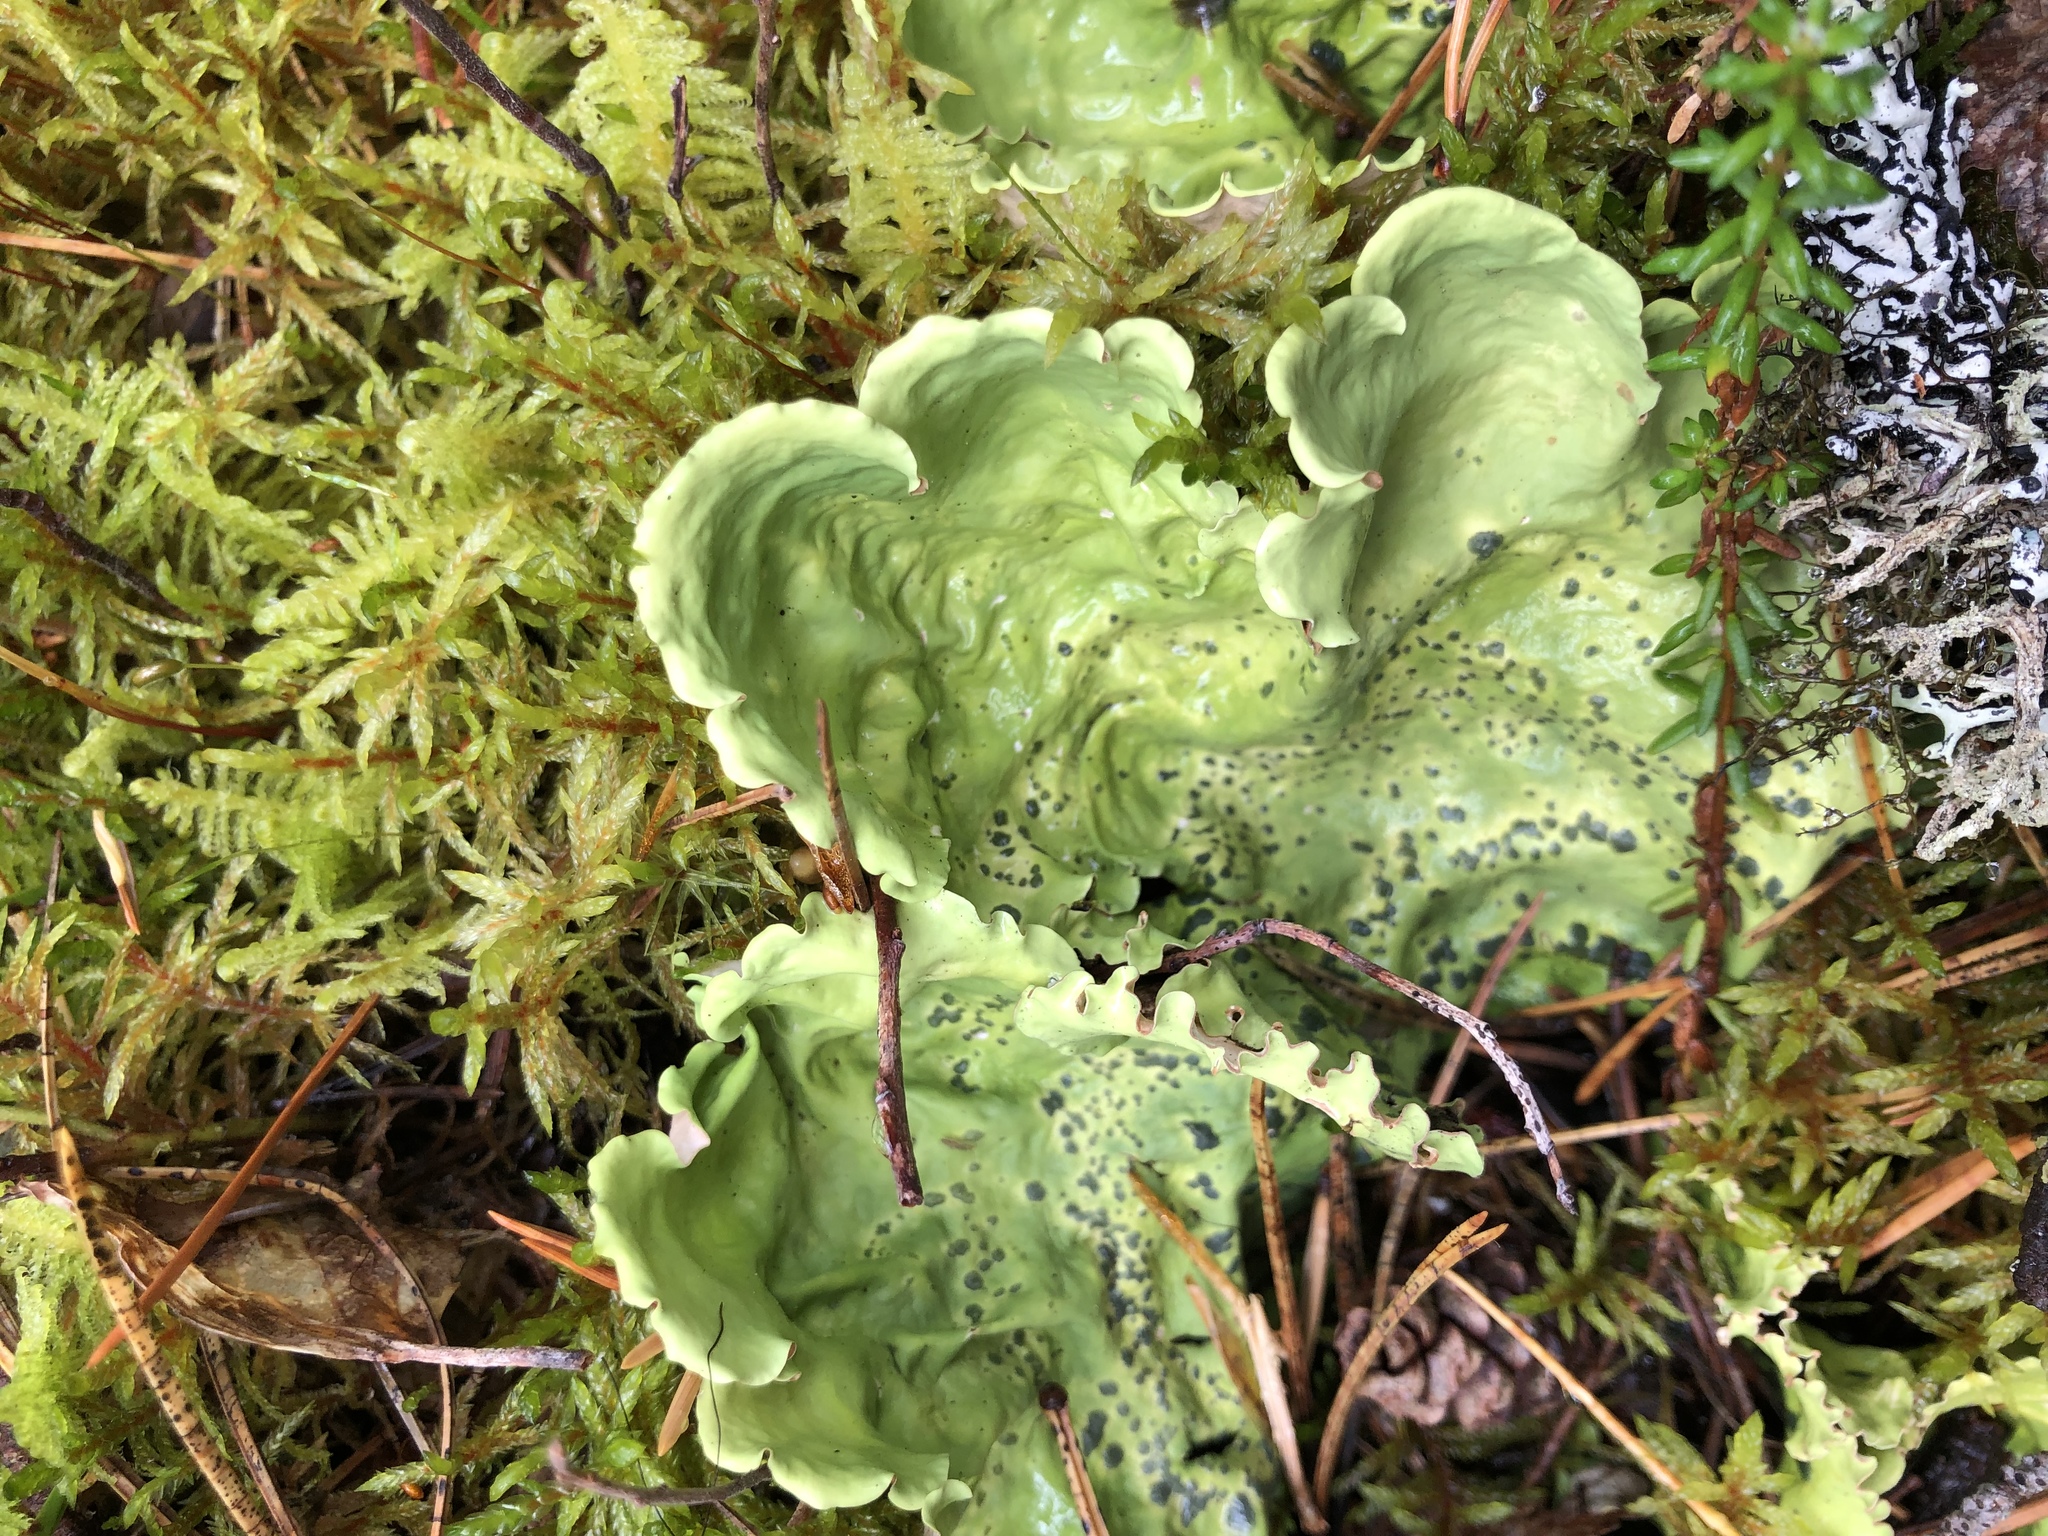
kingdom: Fungi
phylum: Ascomycota
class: Lecanoromycetes
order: Peltigerales
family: Nephromataceae
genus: Nephroma
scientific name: Nephroma arcticum
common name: Arctic kidney-lichen
